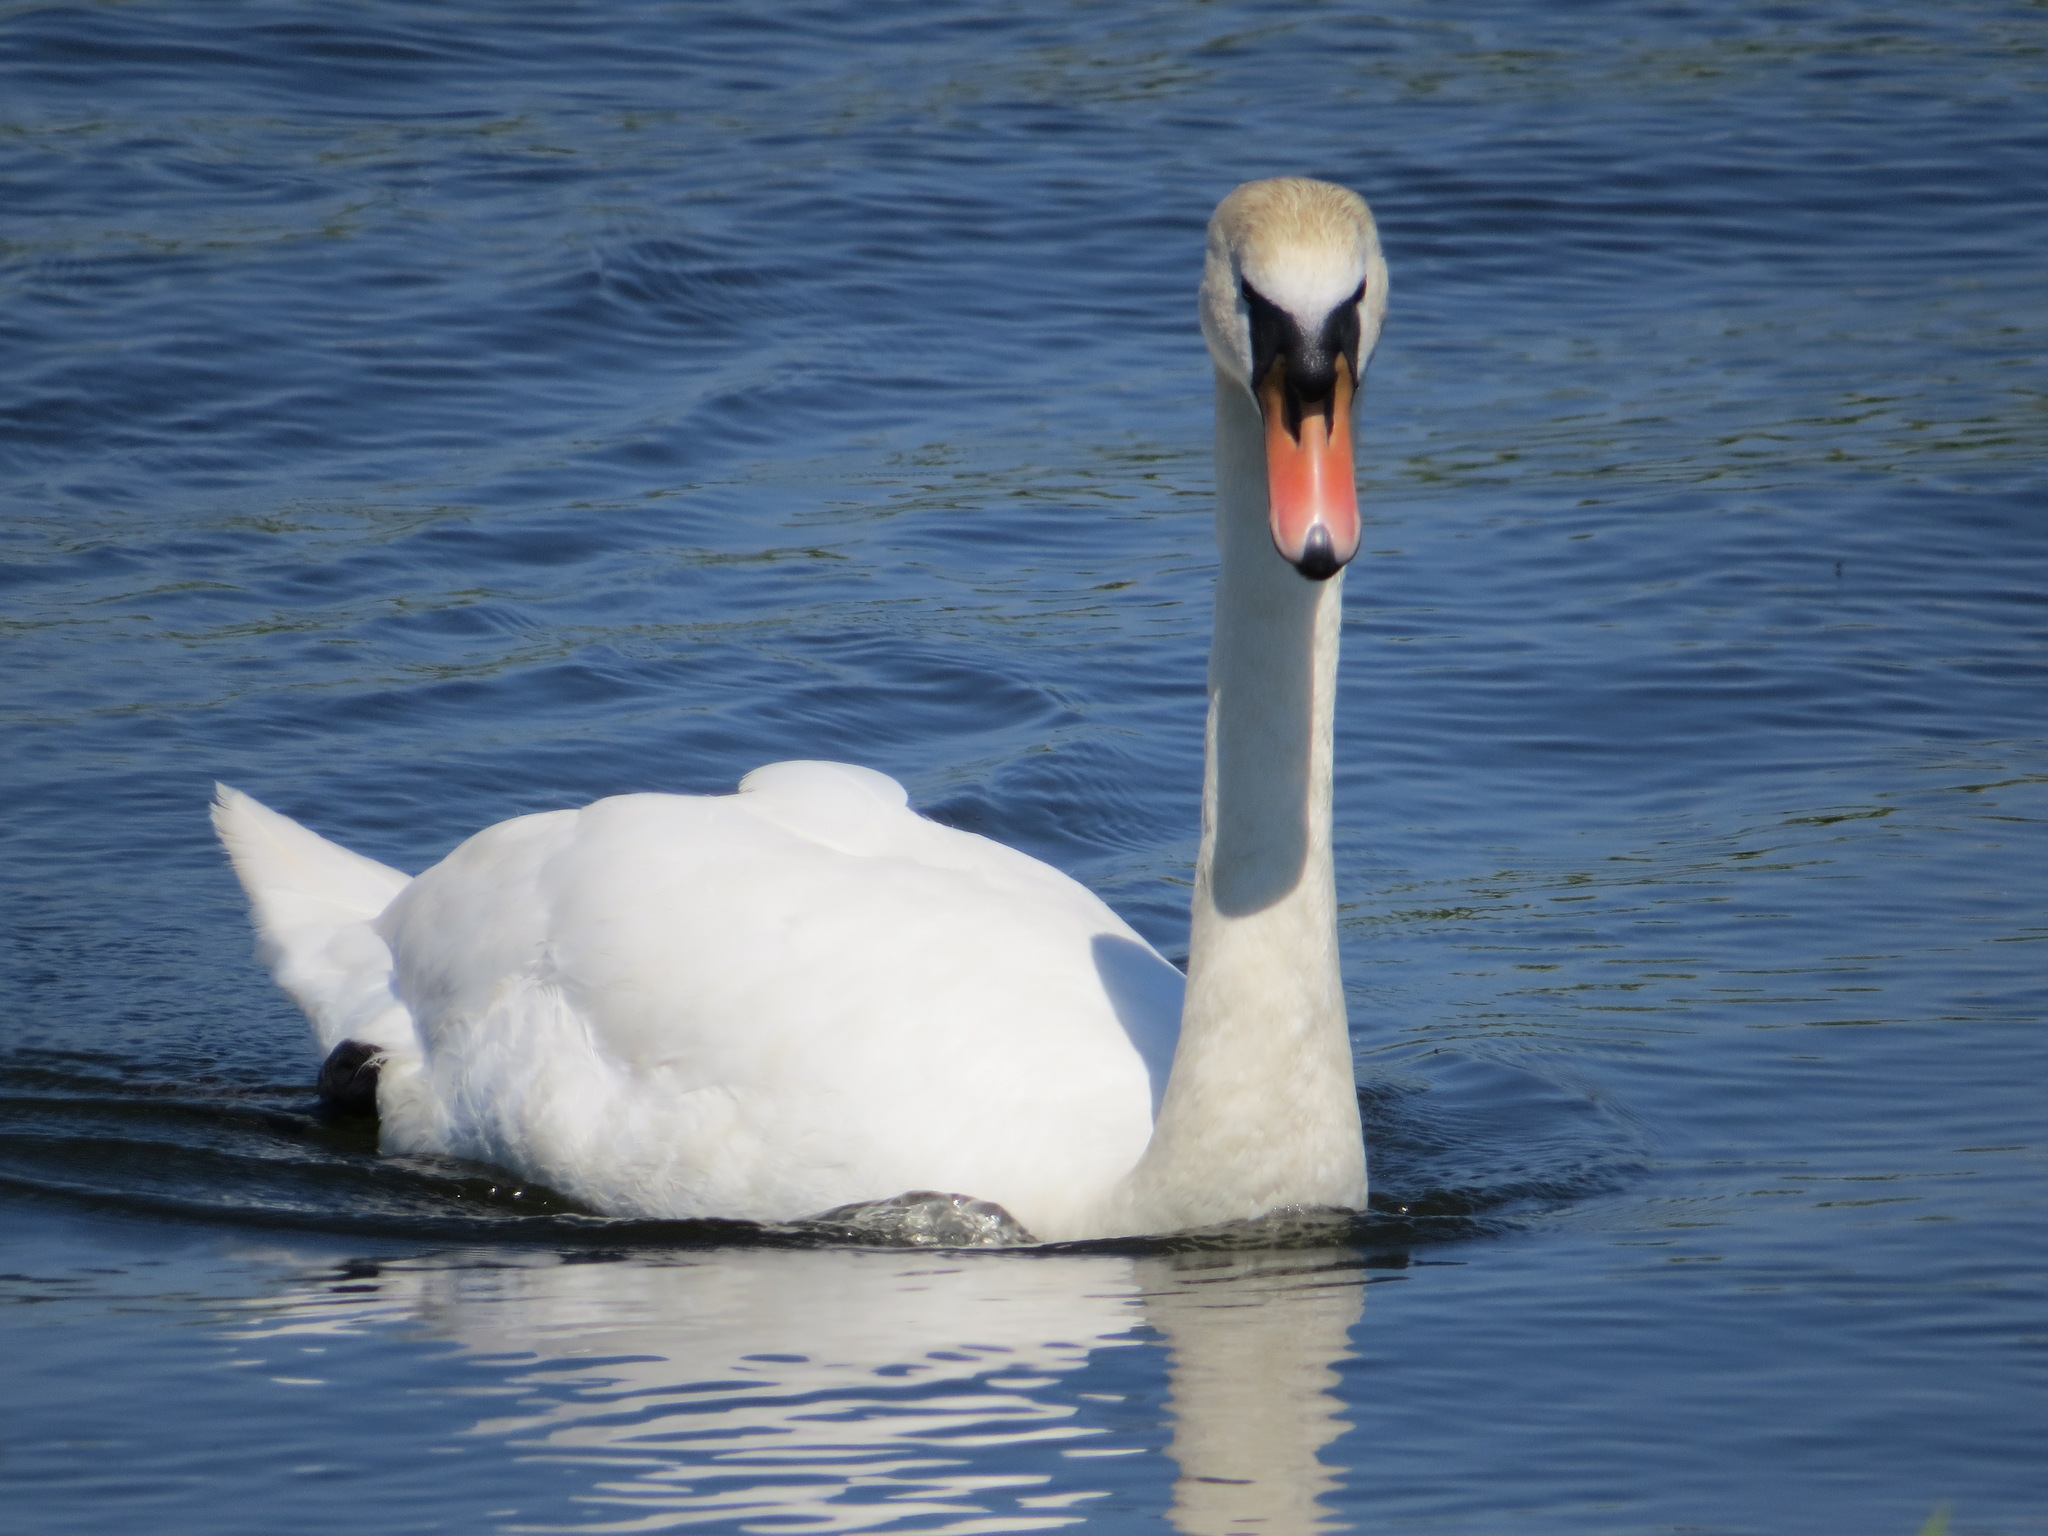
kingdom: Animalia
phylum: Chordata
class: Aves
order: Anseriformes
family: Anatidae
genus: Cygnus
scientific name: Cygnus olor
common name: Mute swan
